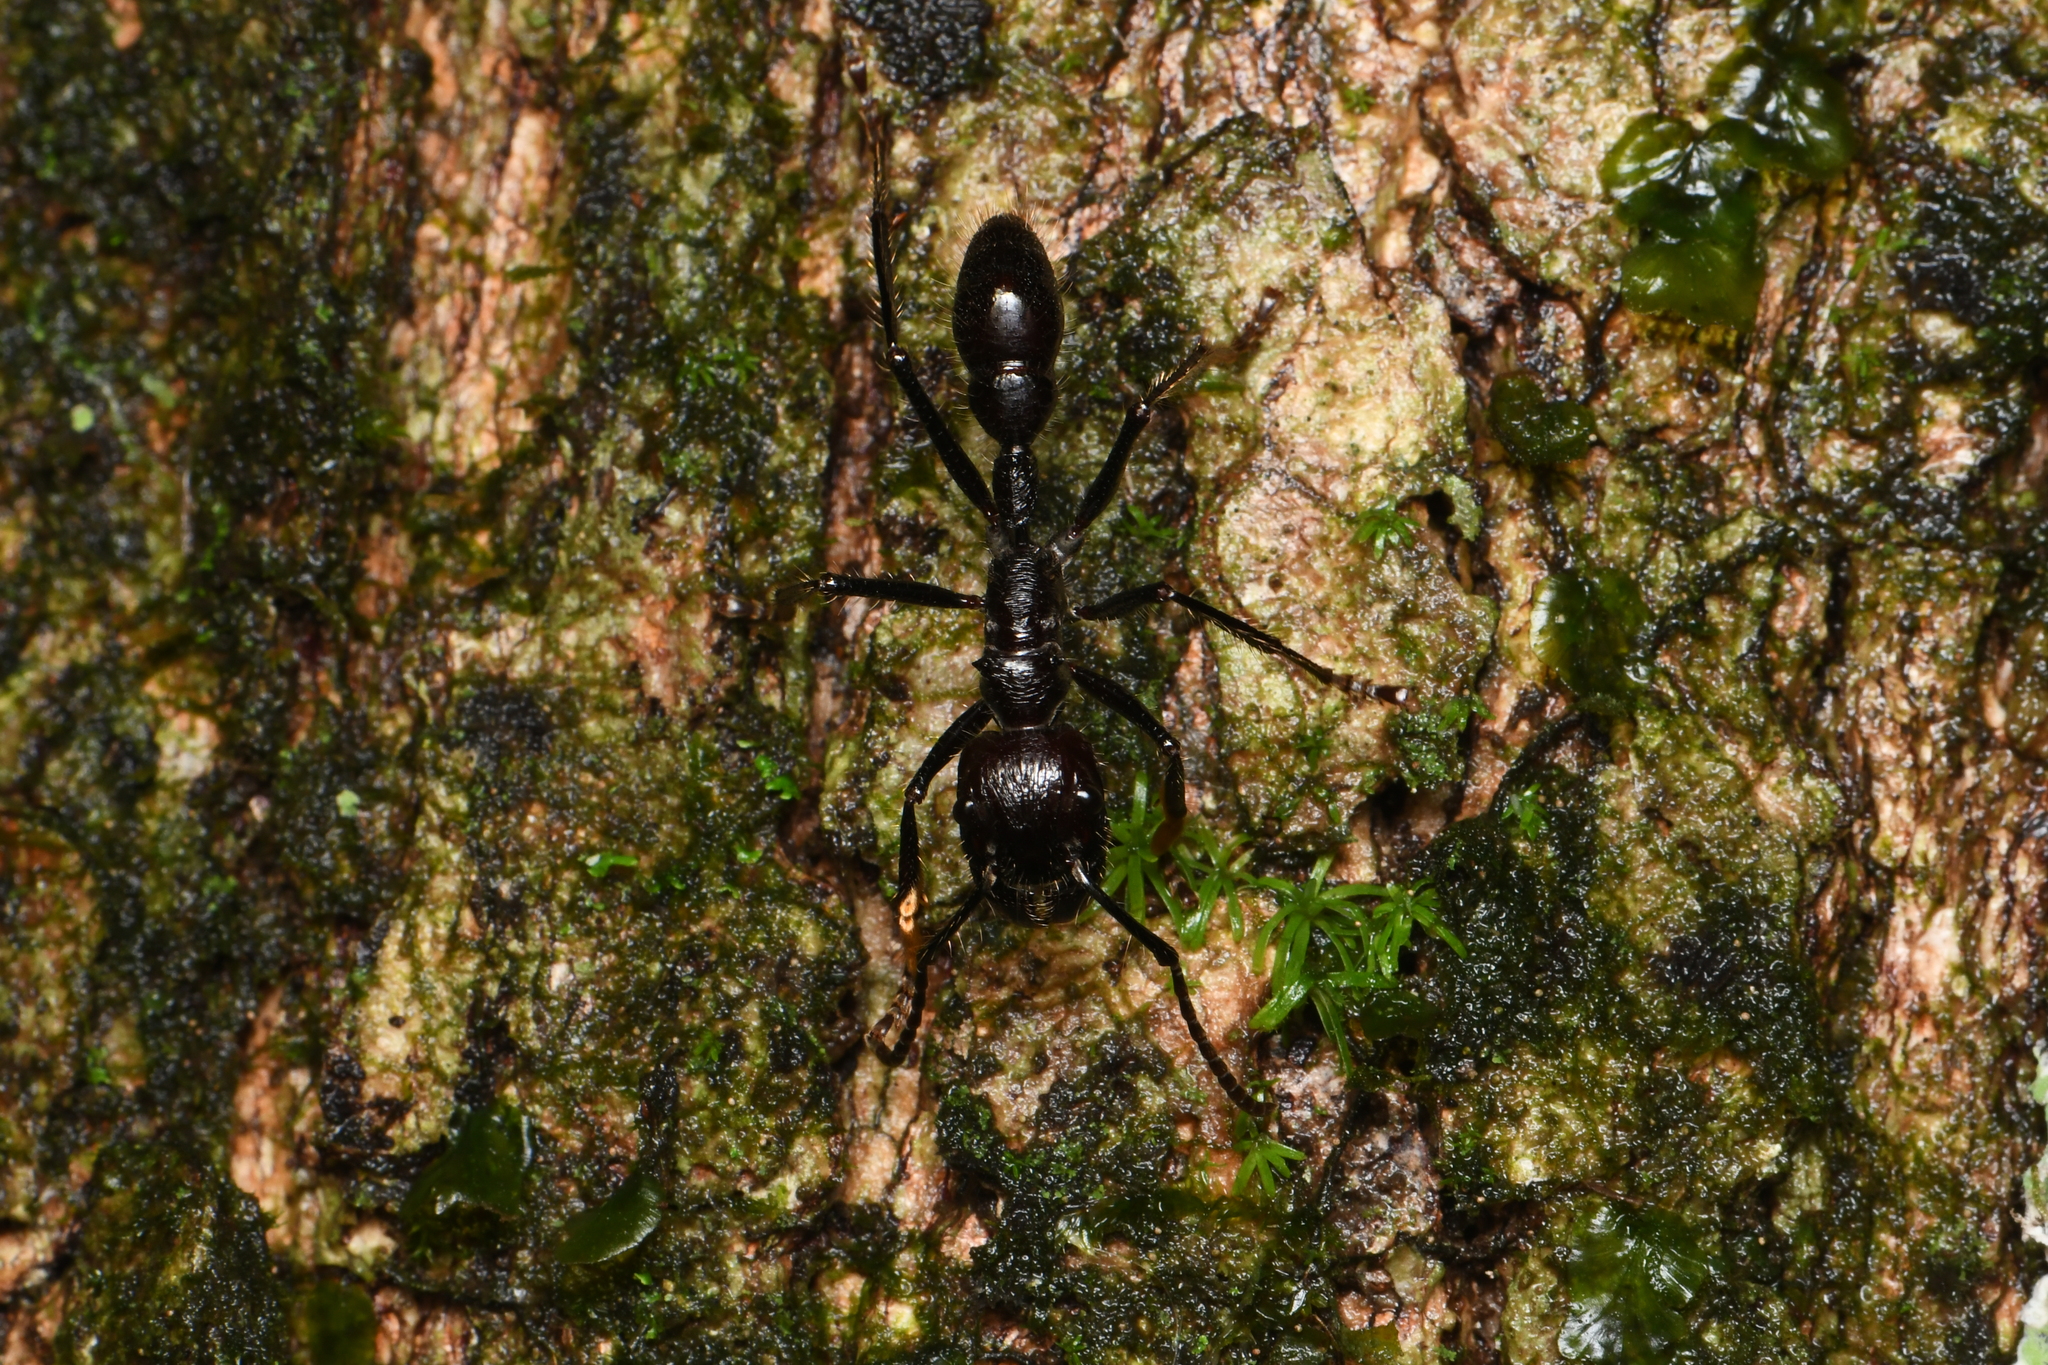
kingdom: Animalia
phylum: Arthropoda
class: Insecta
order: Hymenoptera
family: Formicidae
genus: Paraponera
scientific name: Paraponera clavata
